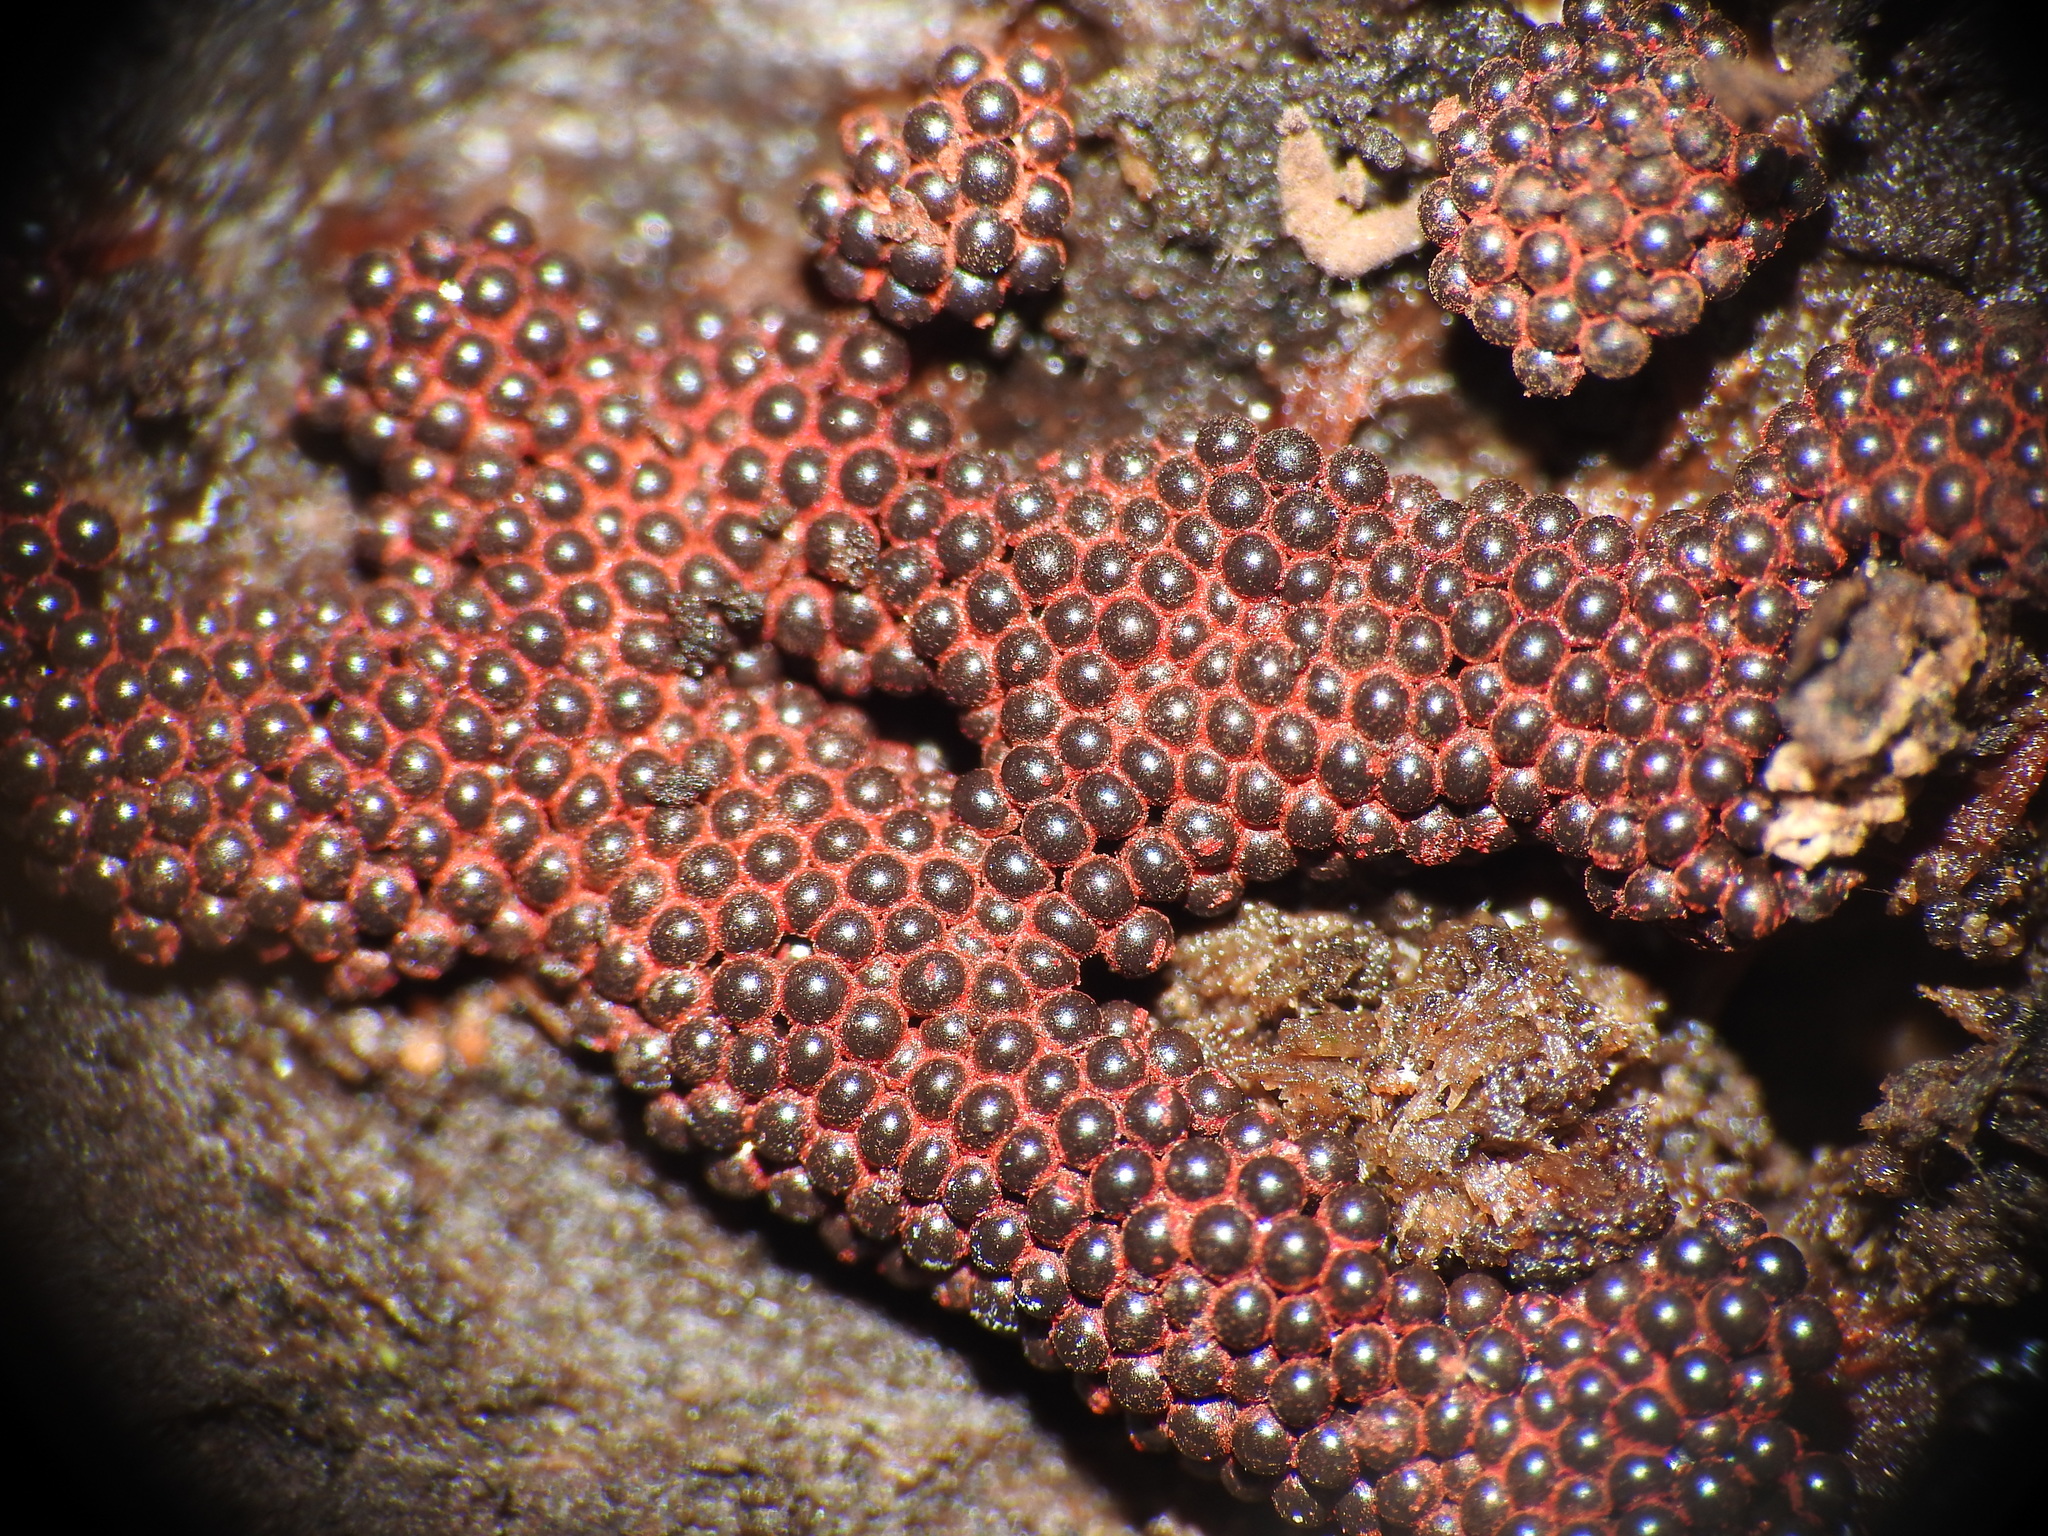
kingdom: Protozoa
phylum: Mycetozoa
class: Myxomycetes
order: Trichiales
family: Trichiaceae
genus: Metatrichia
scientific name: Metatrichia vesparia
